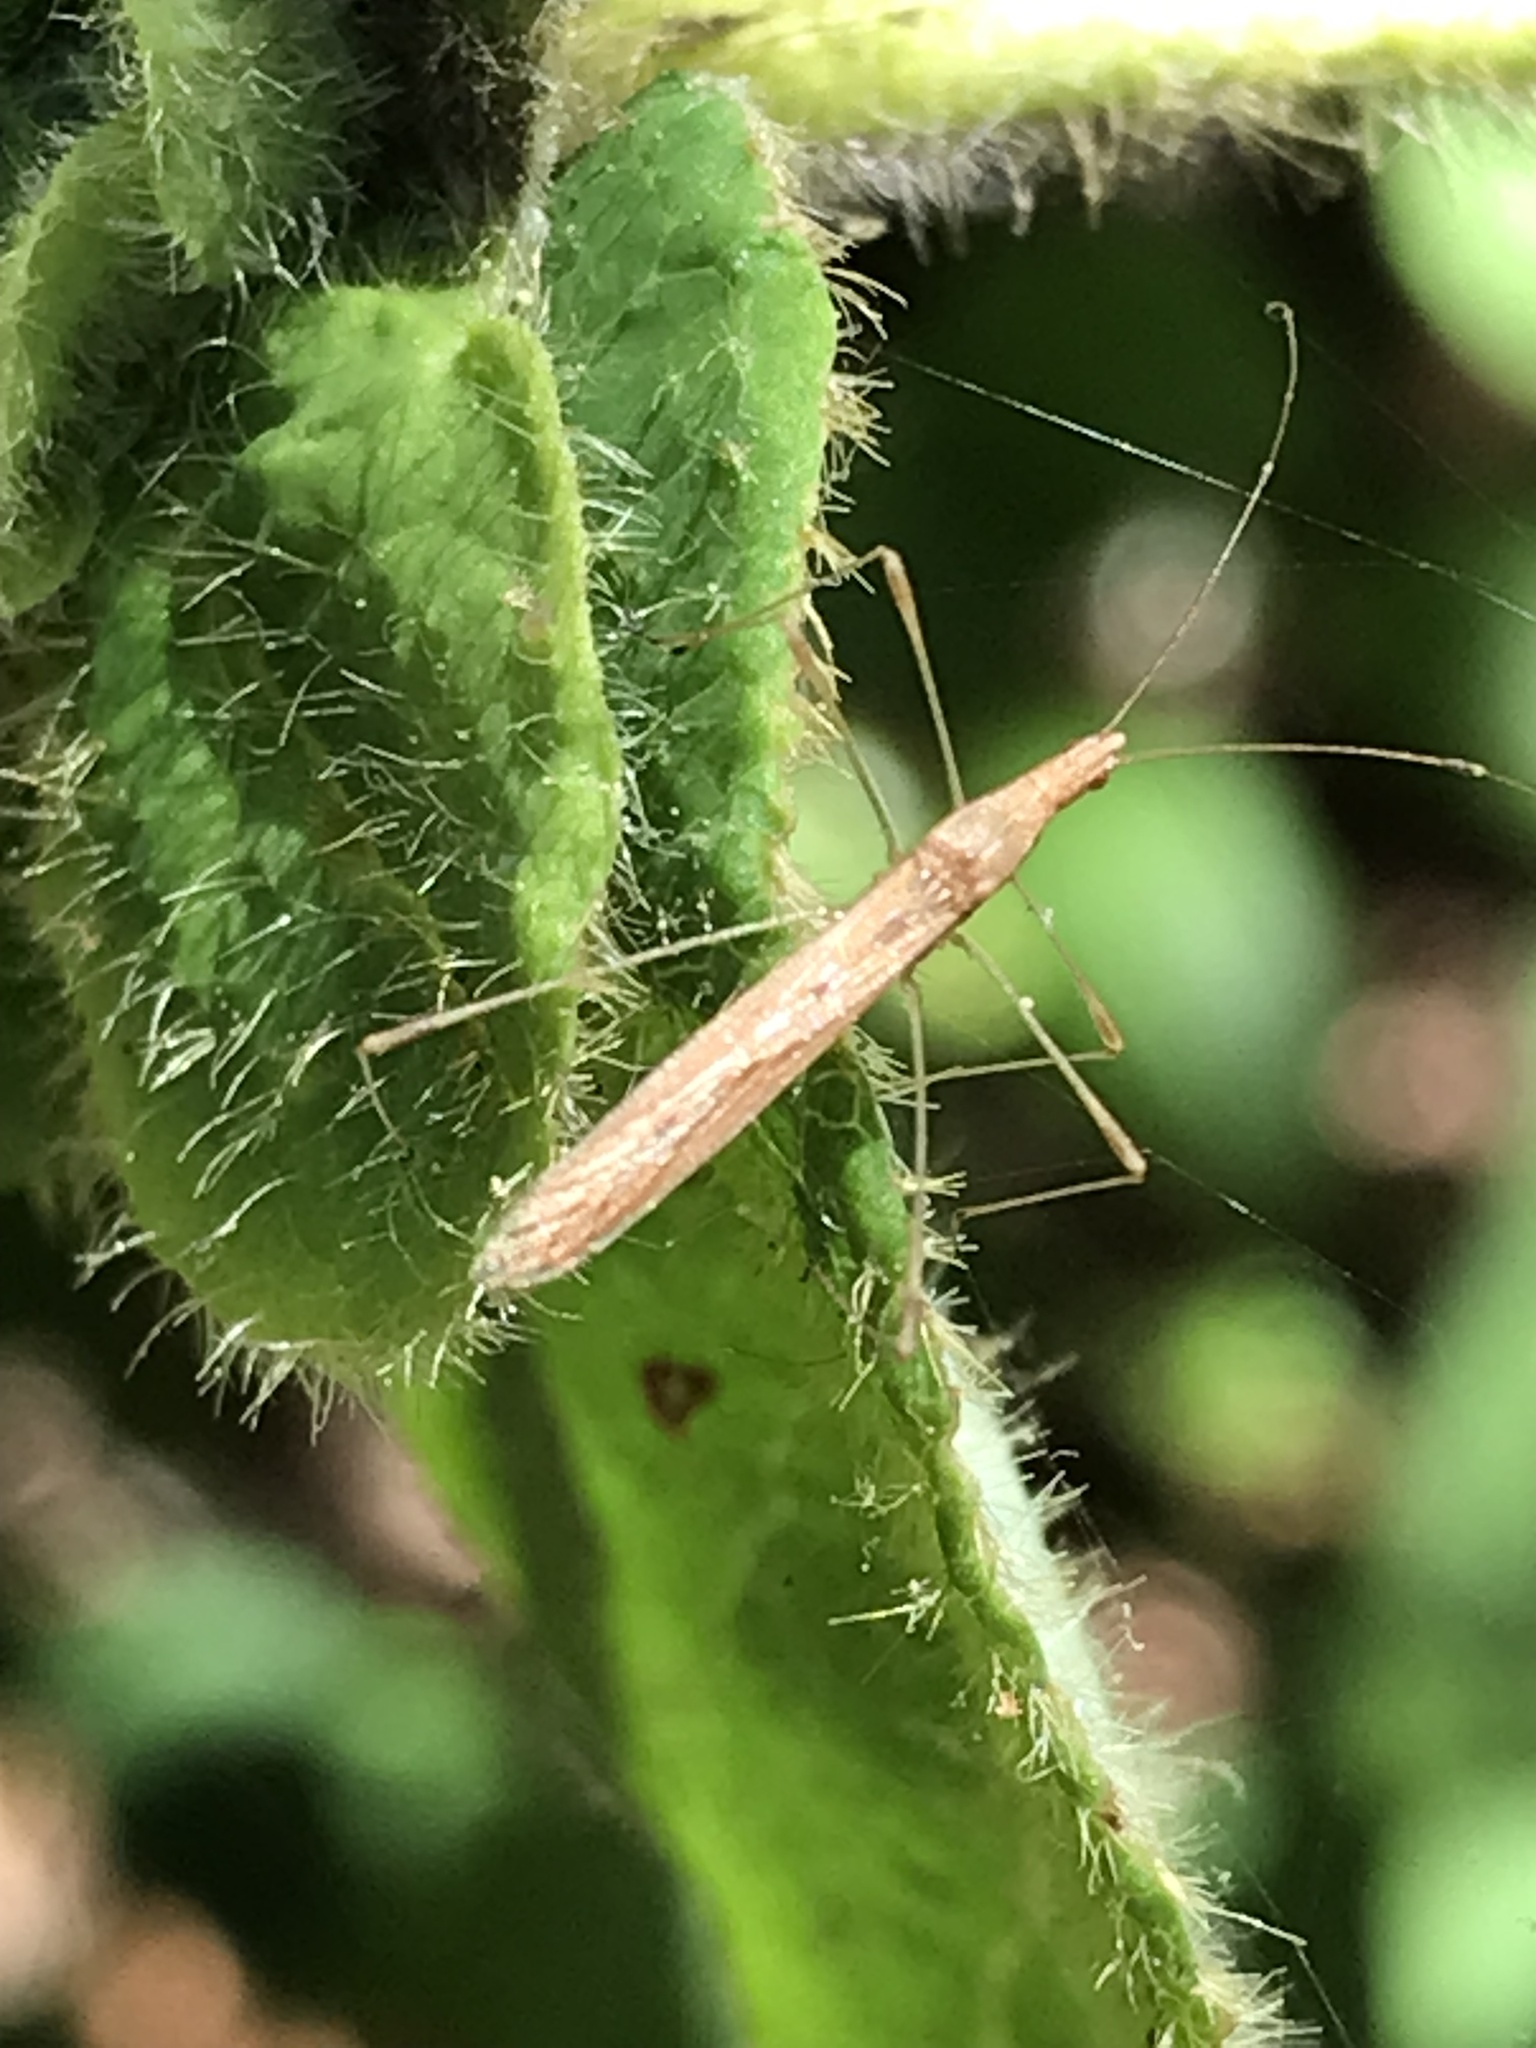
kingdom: Animalia
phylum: Arthropoda
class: Insecta
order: Hemiptera
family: Berytidae
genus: Neoneides
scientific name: Neoneides muticus
